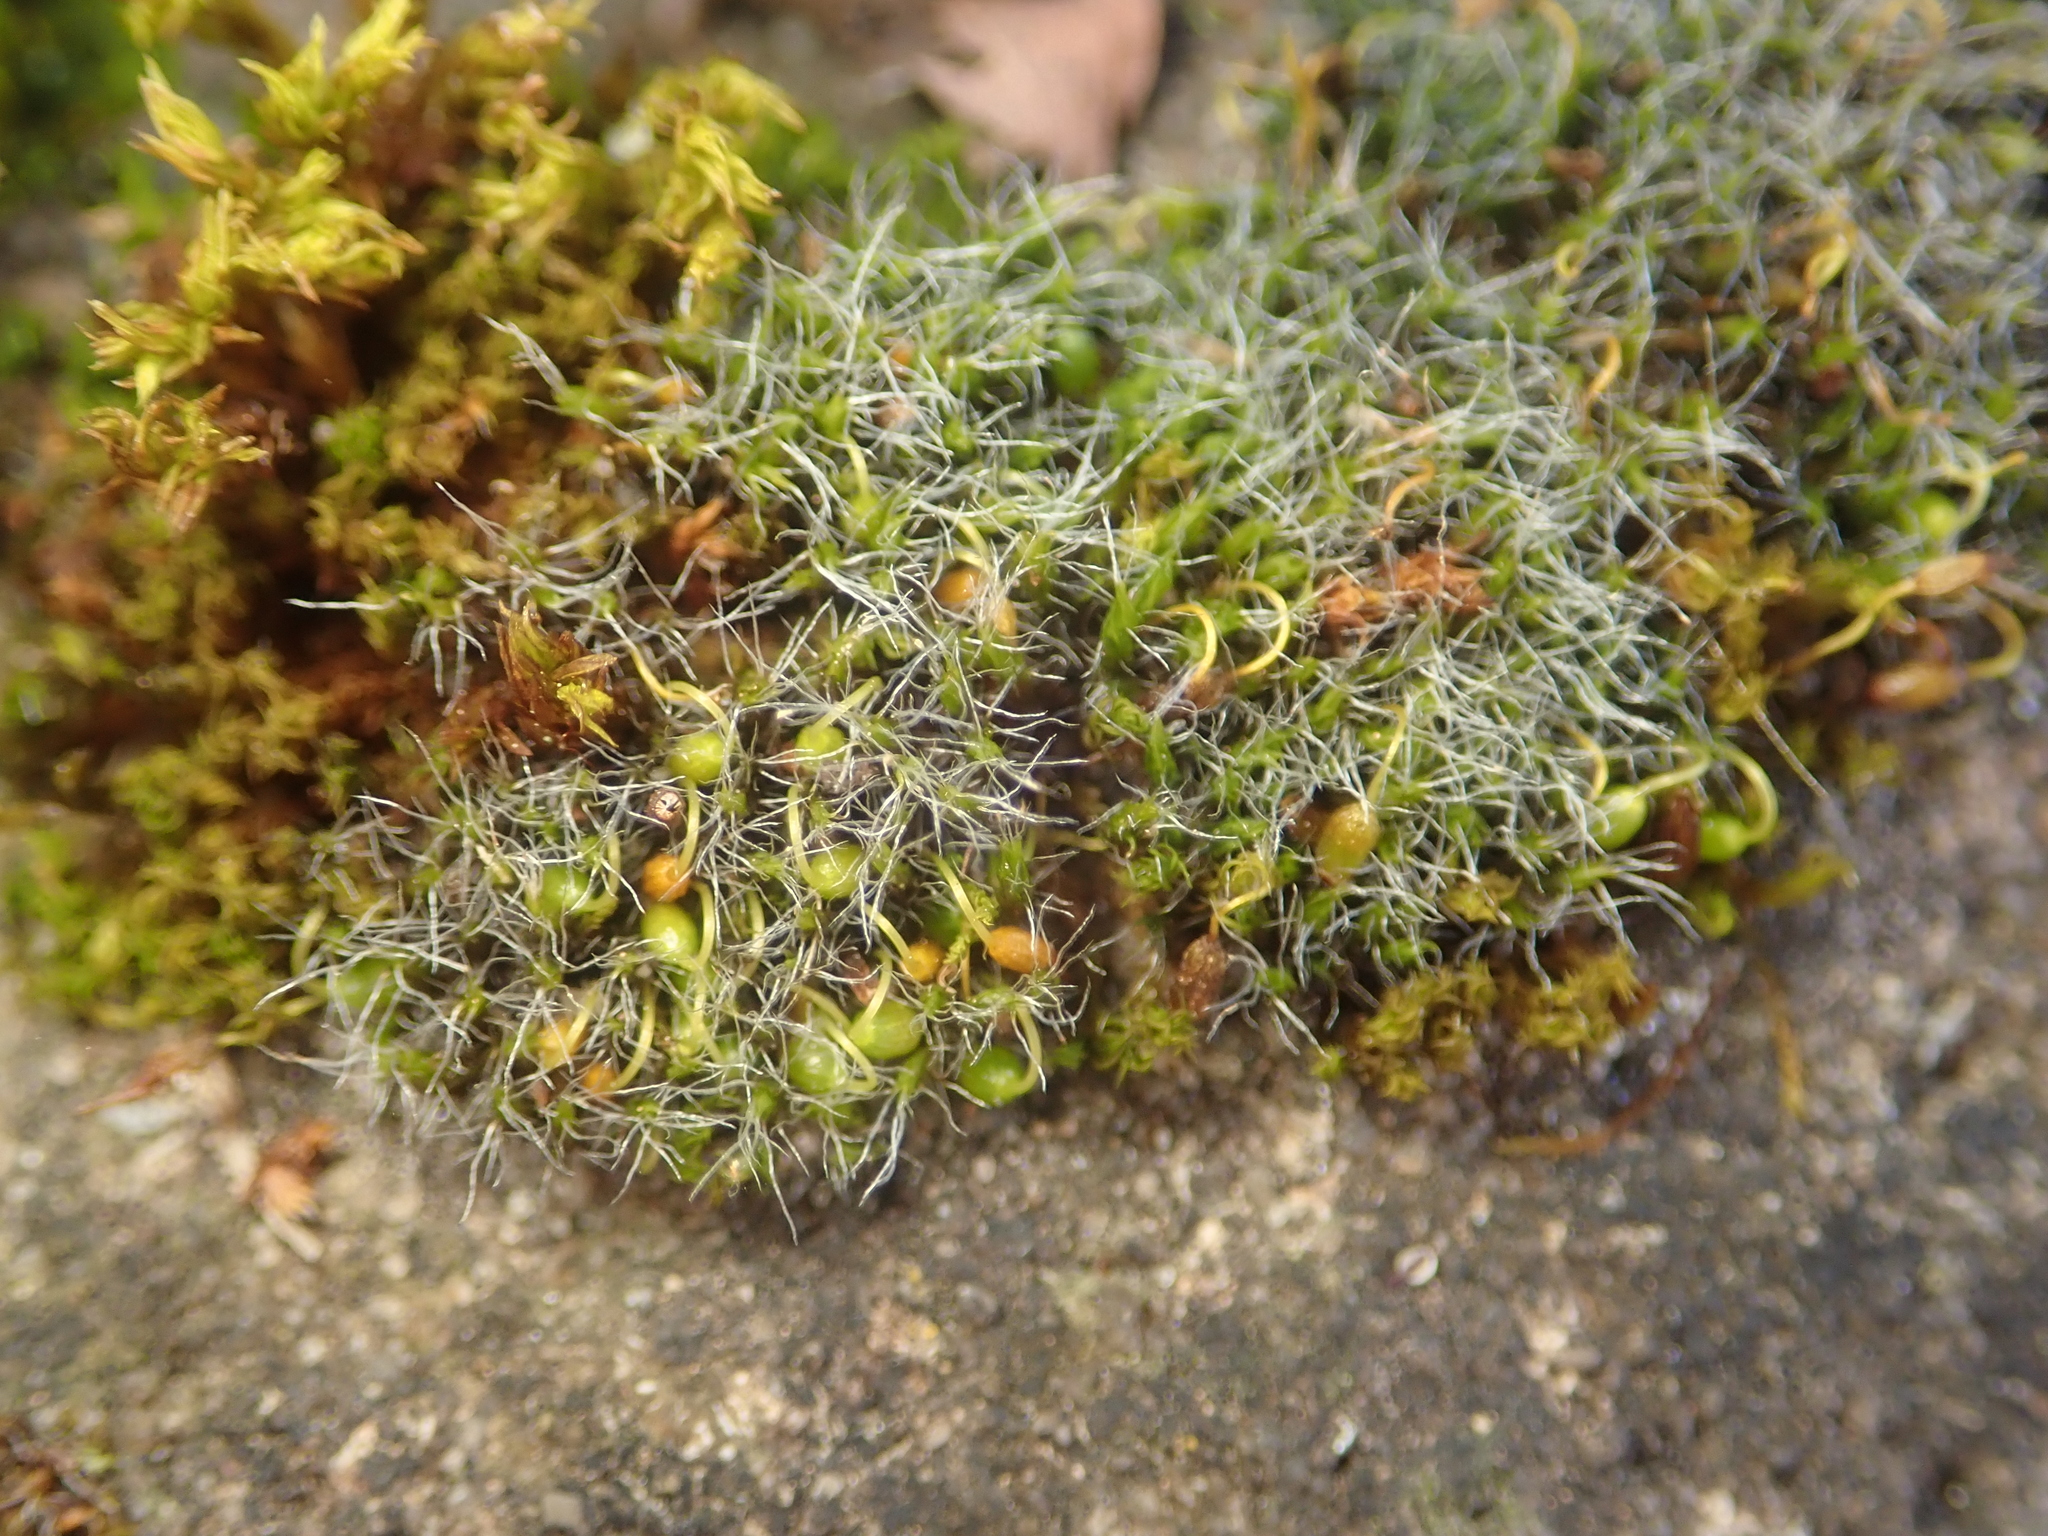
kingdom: Plantae
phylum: Bryophyta
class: Bryopsida
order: Grimmiales
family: Grimmiaceae
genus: Grimmia
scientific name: Grimmia pulvinata
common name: Grey-cushioned grimmia
